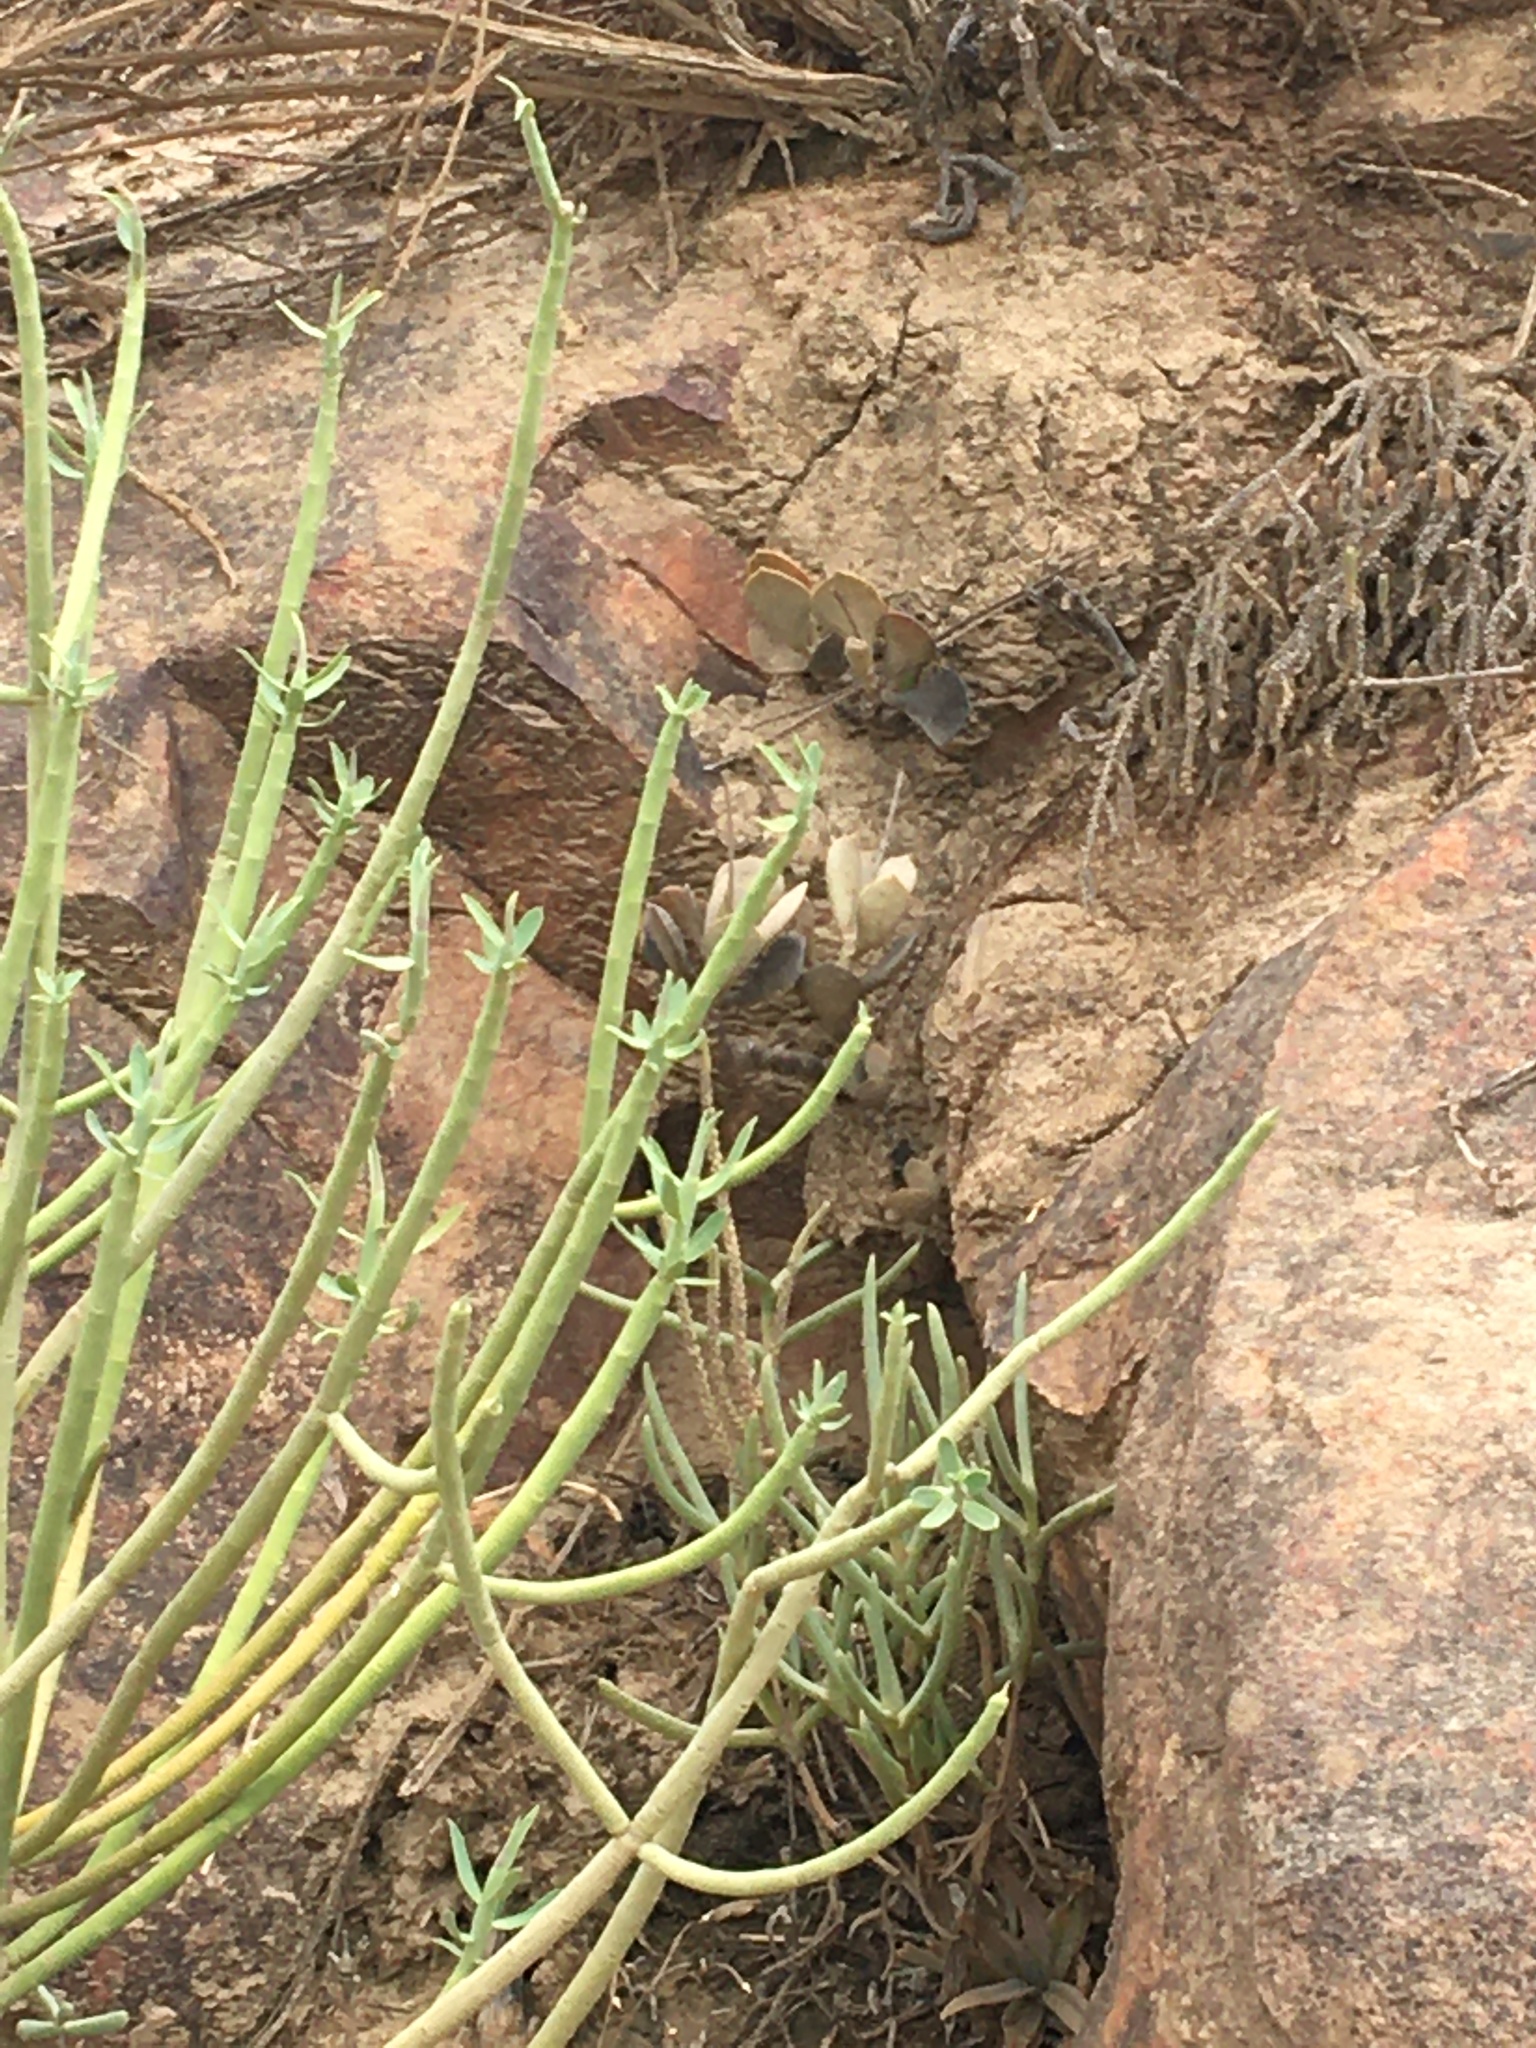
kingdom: Plantae
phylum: Tracheophyta
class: Magnoliopsida
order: Malpighiales
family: Euphorbiaceae
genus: Euphorbia
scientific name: Euphorbia mauritanica
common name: Jackal's-food
